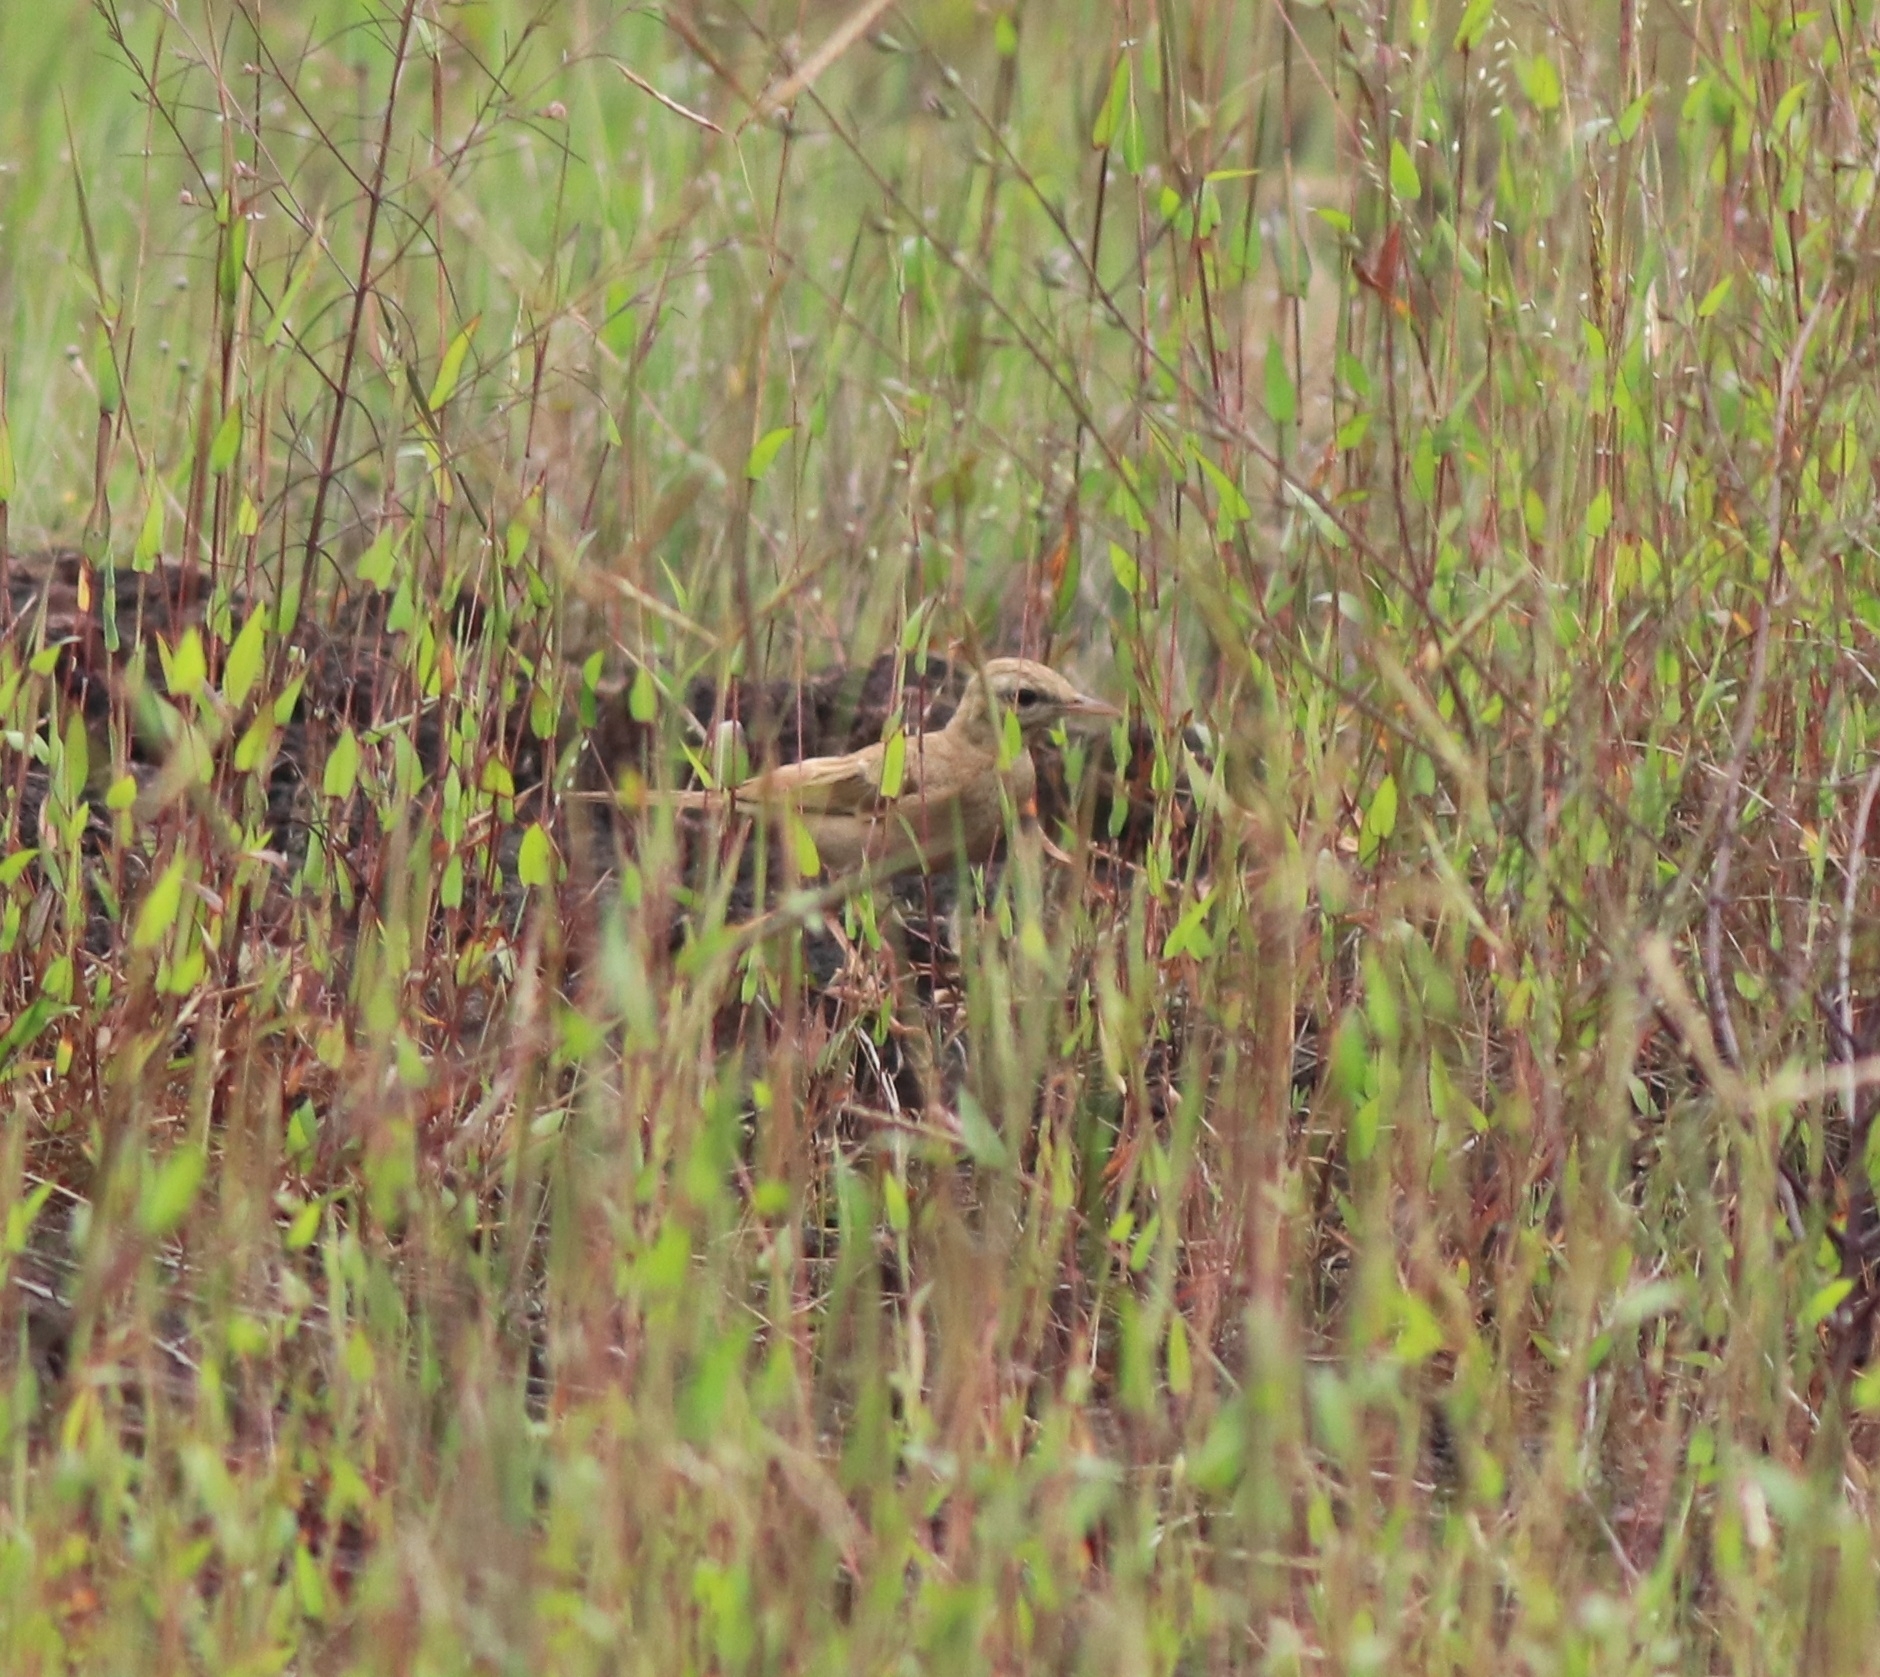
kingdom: Animalia
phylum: Chordata
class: Aves
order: Passeriformes
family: Motacillidae
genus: Anthus
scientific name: Anthus campestris
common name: Tawny pipit
